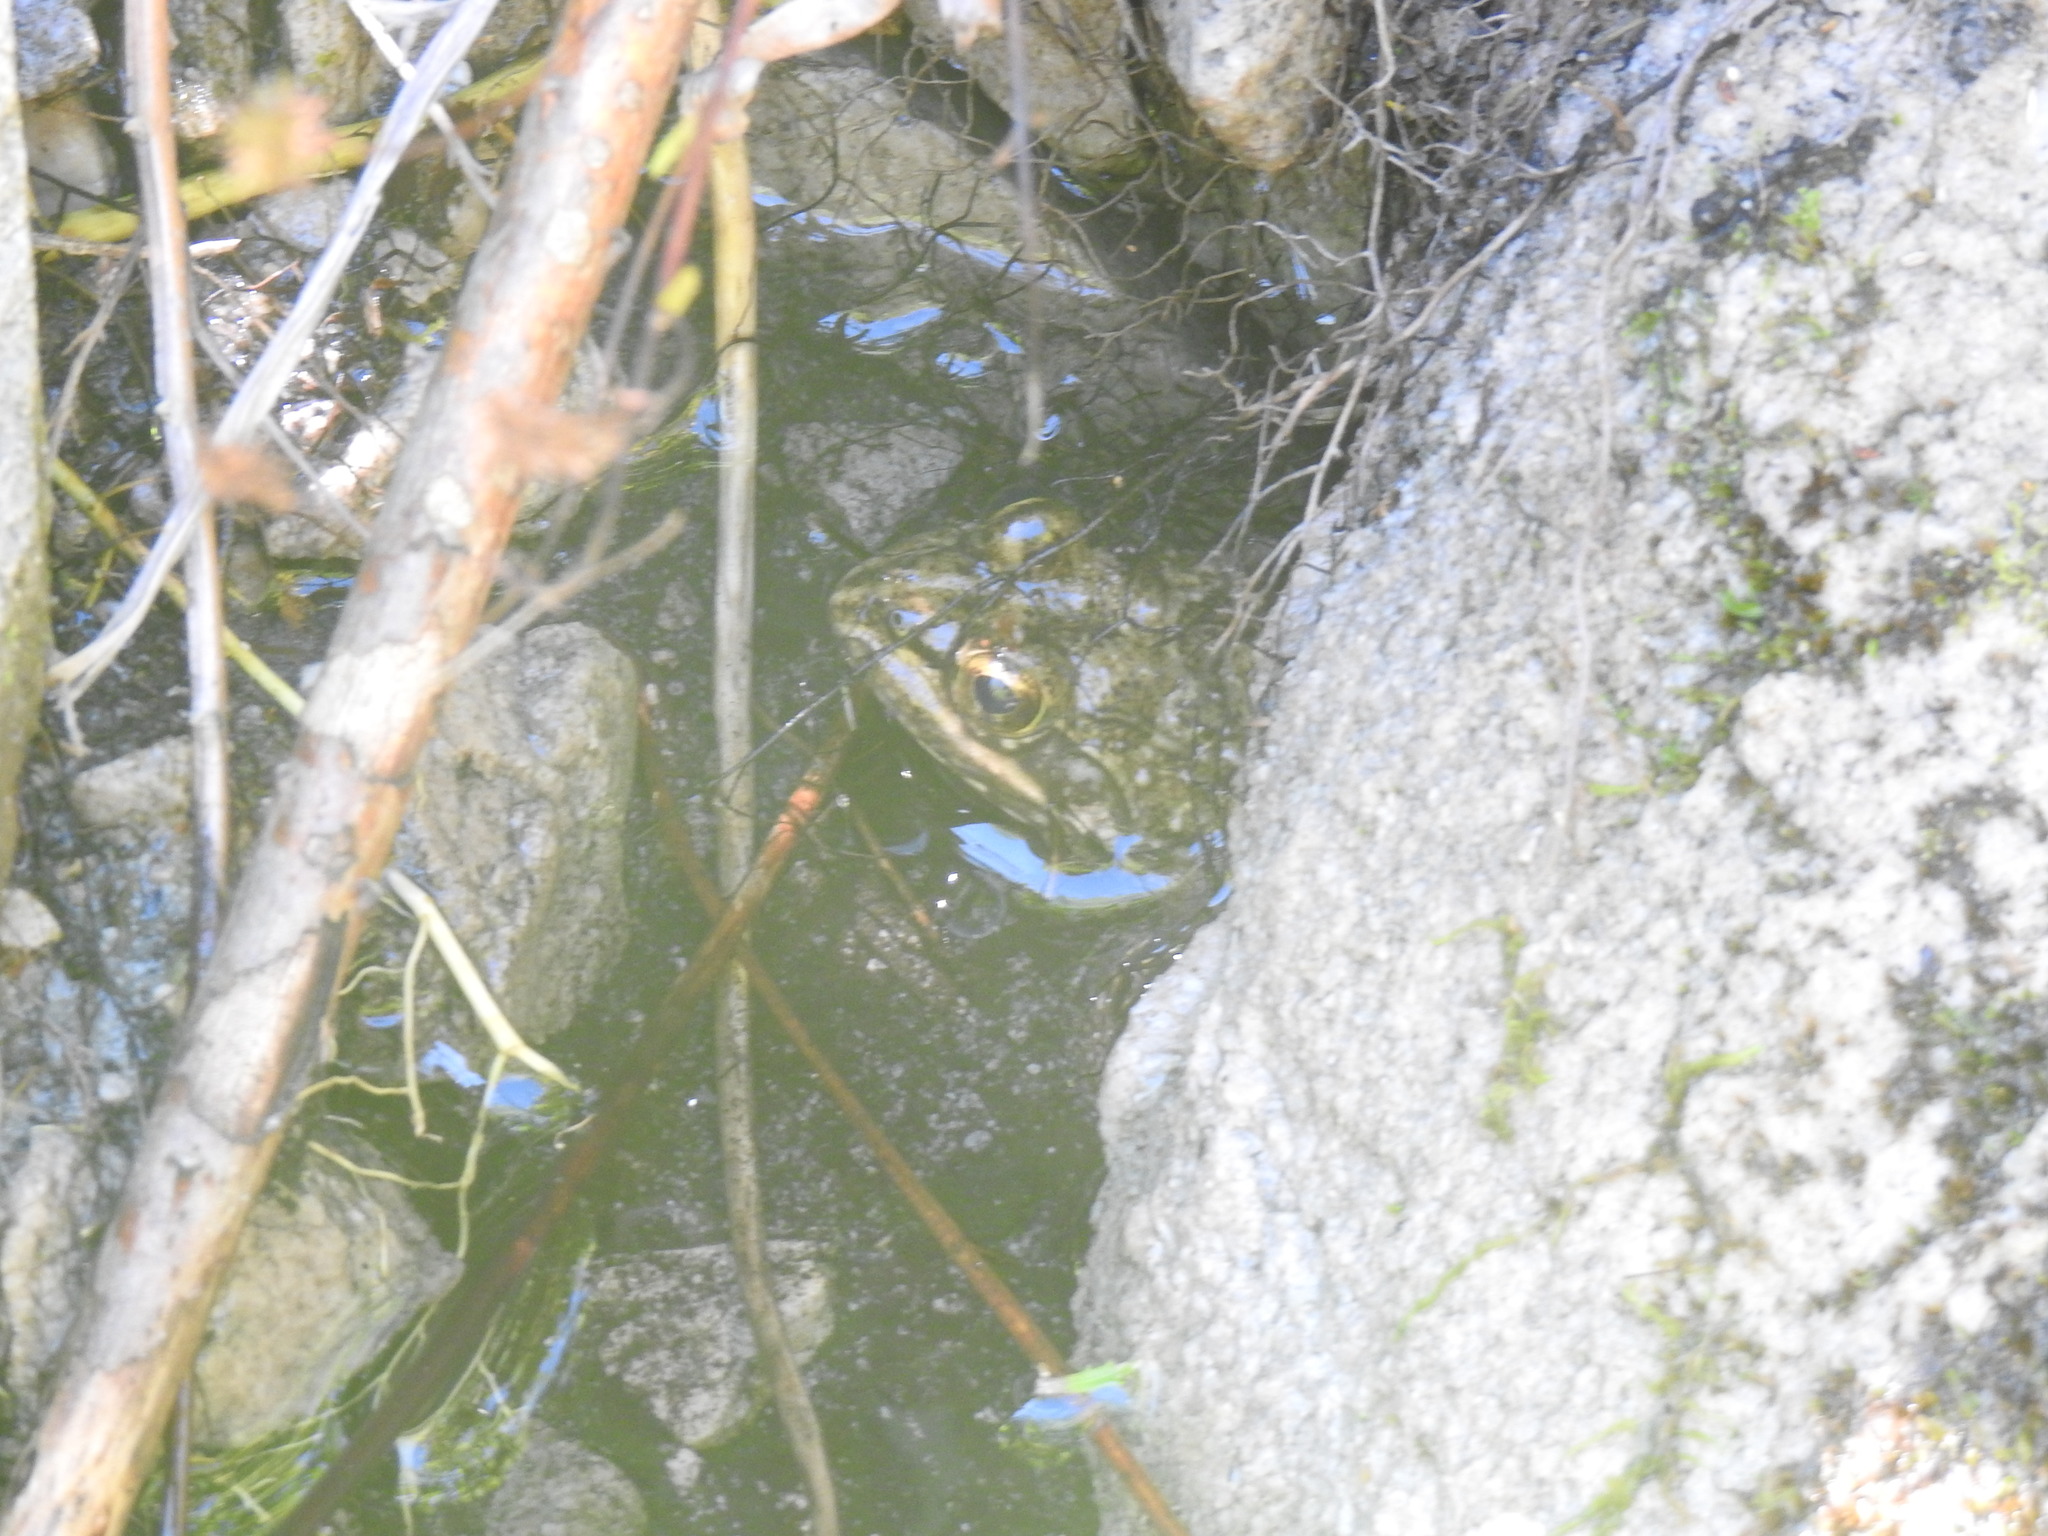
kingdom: Animalia
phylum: Chordata
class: Amphibia
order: Anura
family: Pyxicephalidae
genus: Amietia
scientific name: Amietia fuscigula
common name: Cape rana
